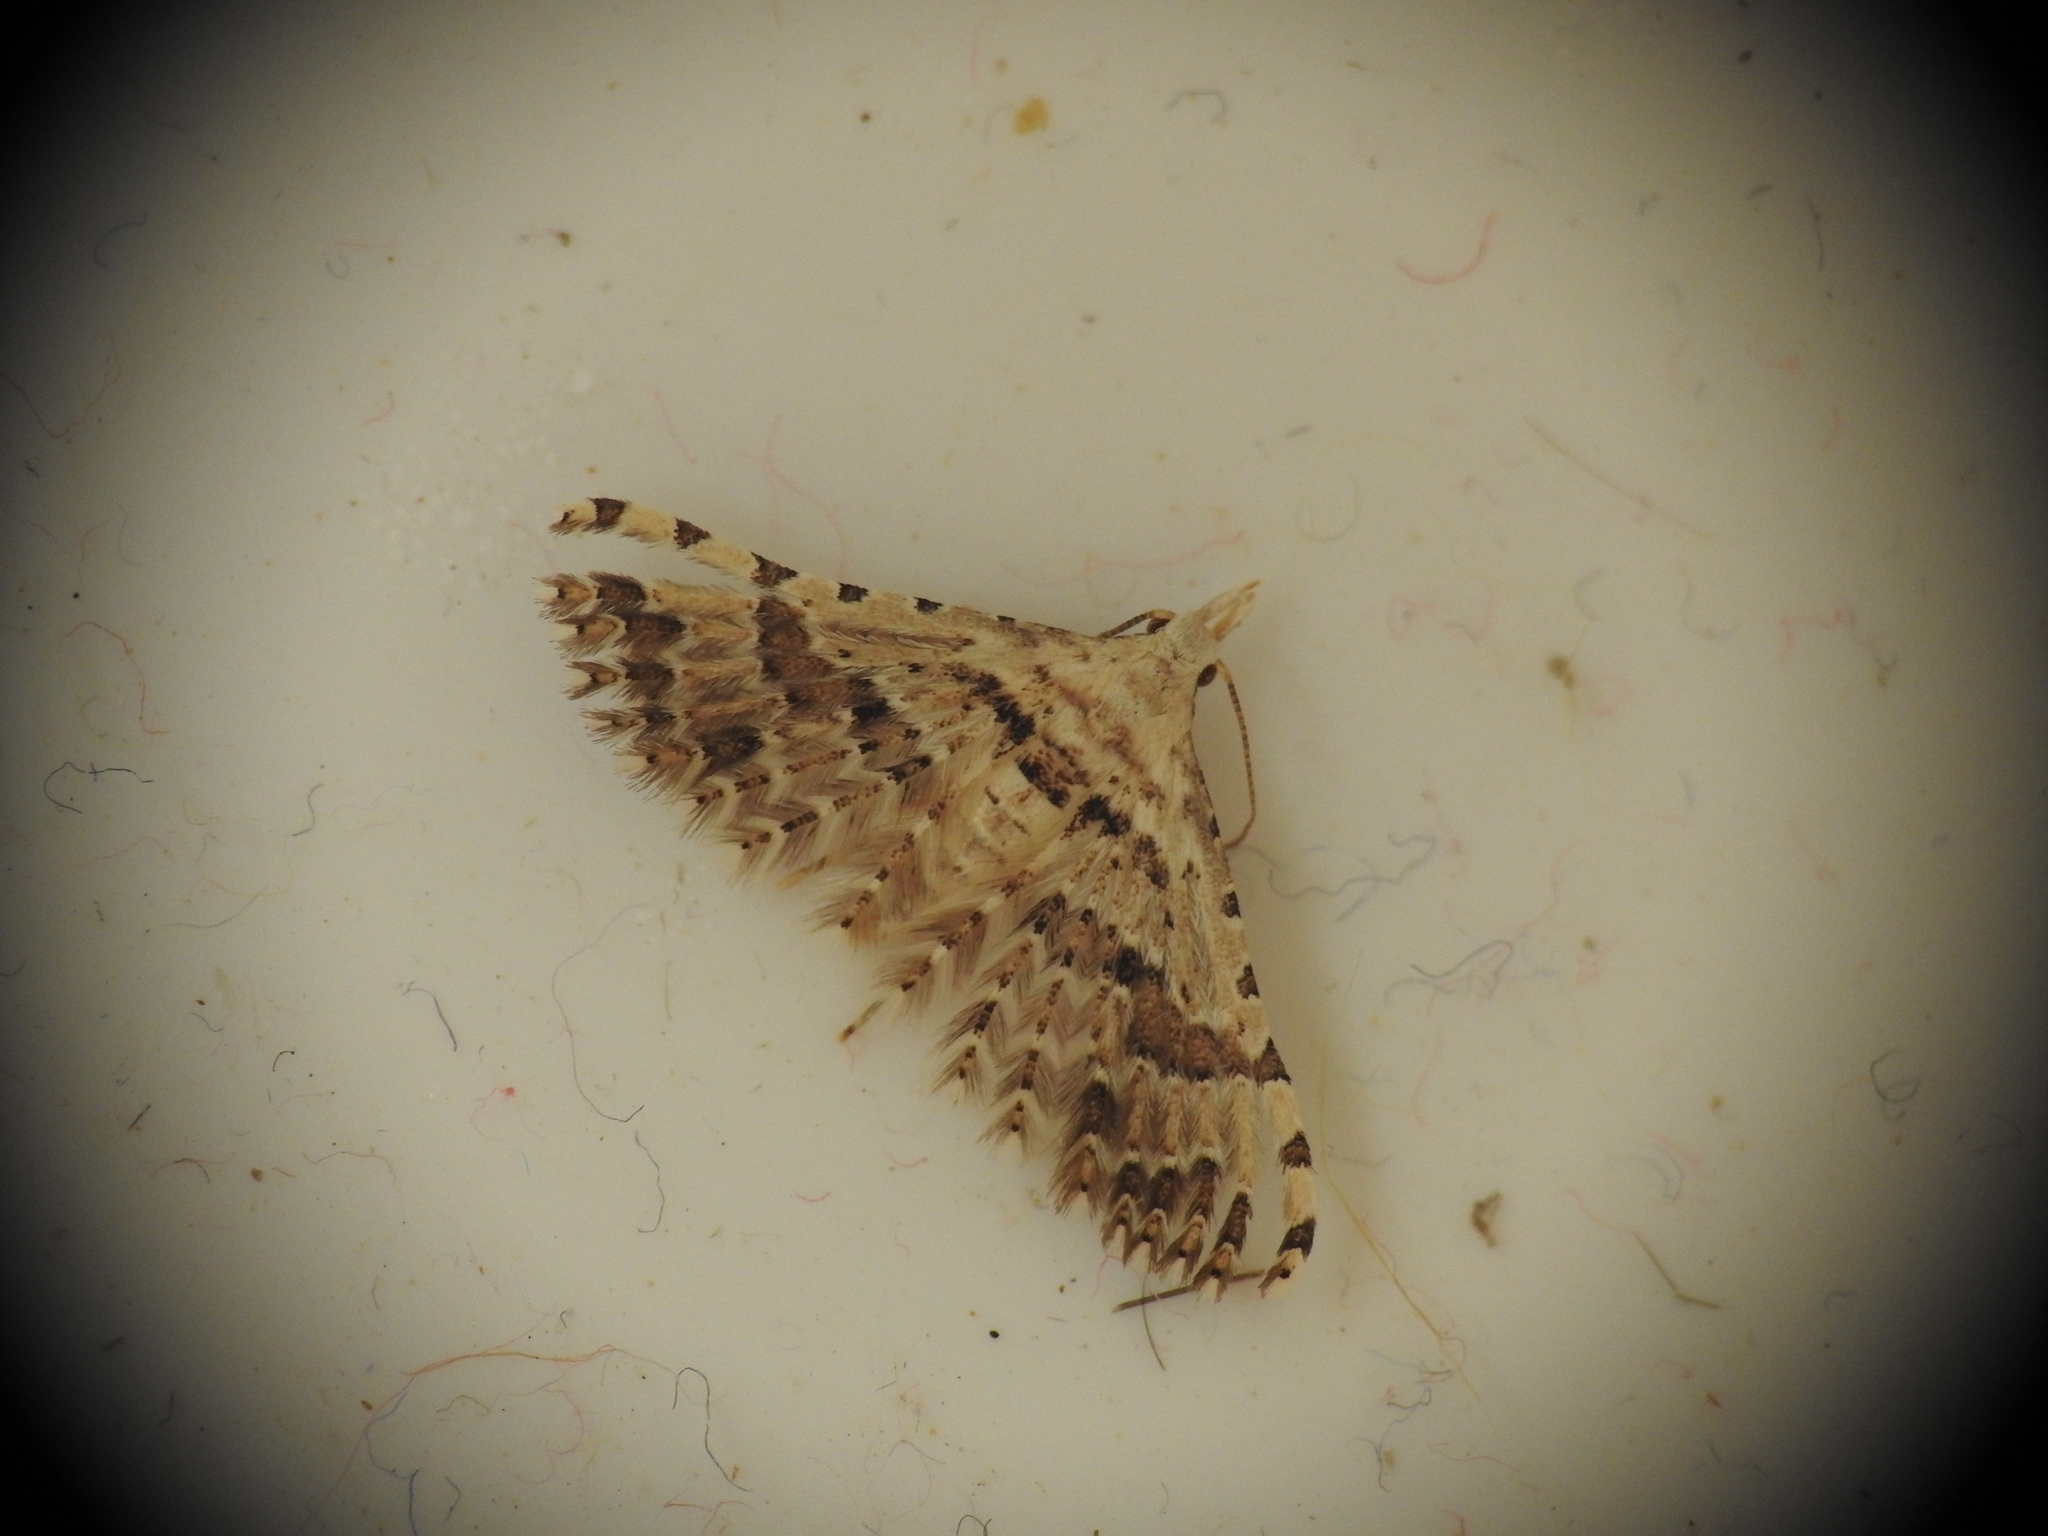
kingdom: Animalia
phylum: Arthropoda
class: Insecta
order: Lepidoptera
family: Alucitidae
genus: Alucita
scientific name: Alucita palodactyla
